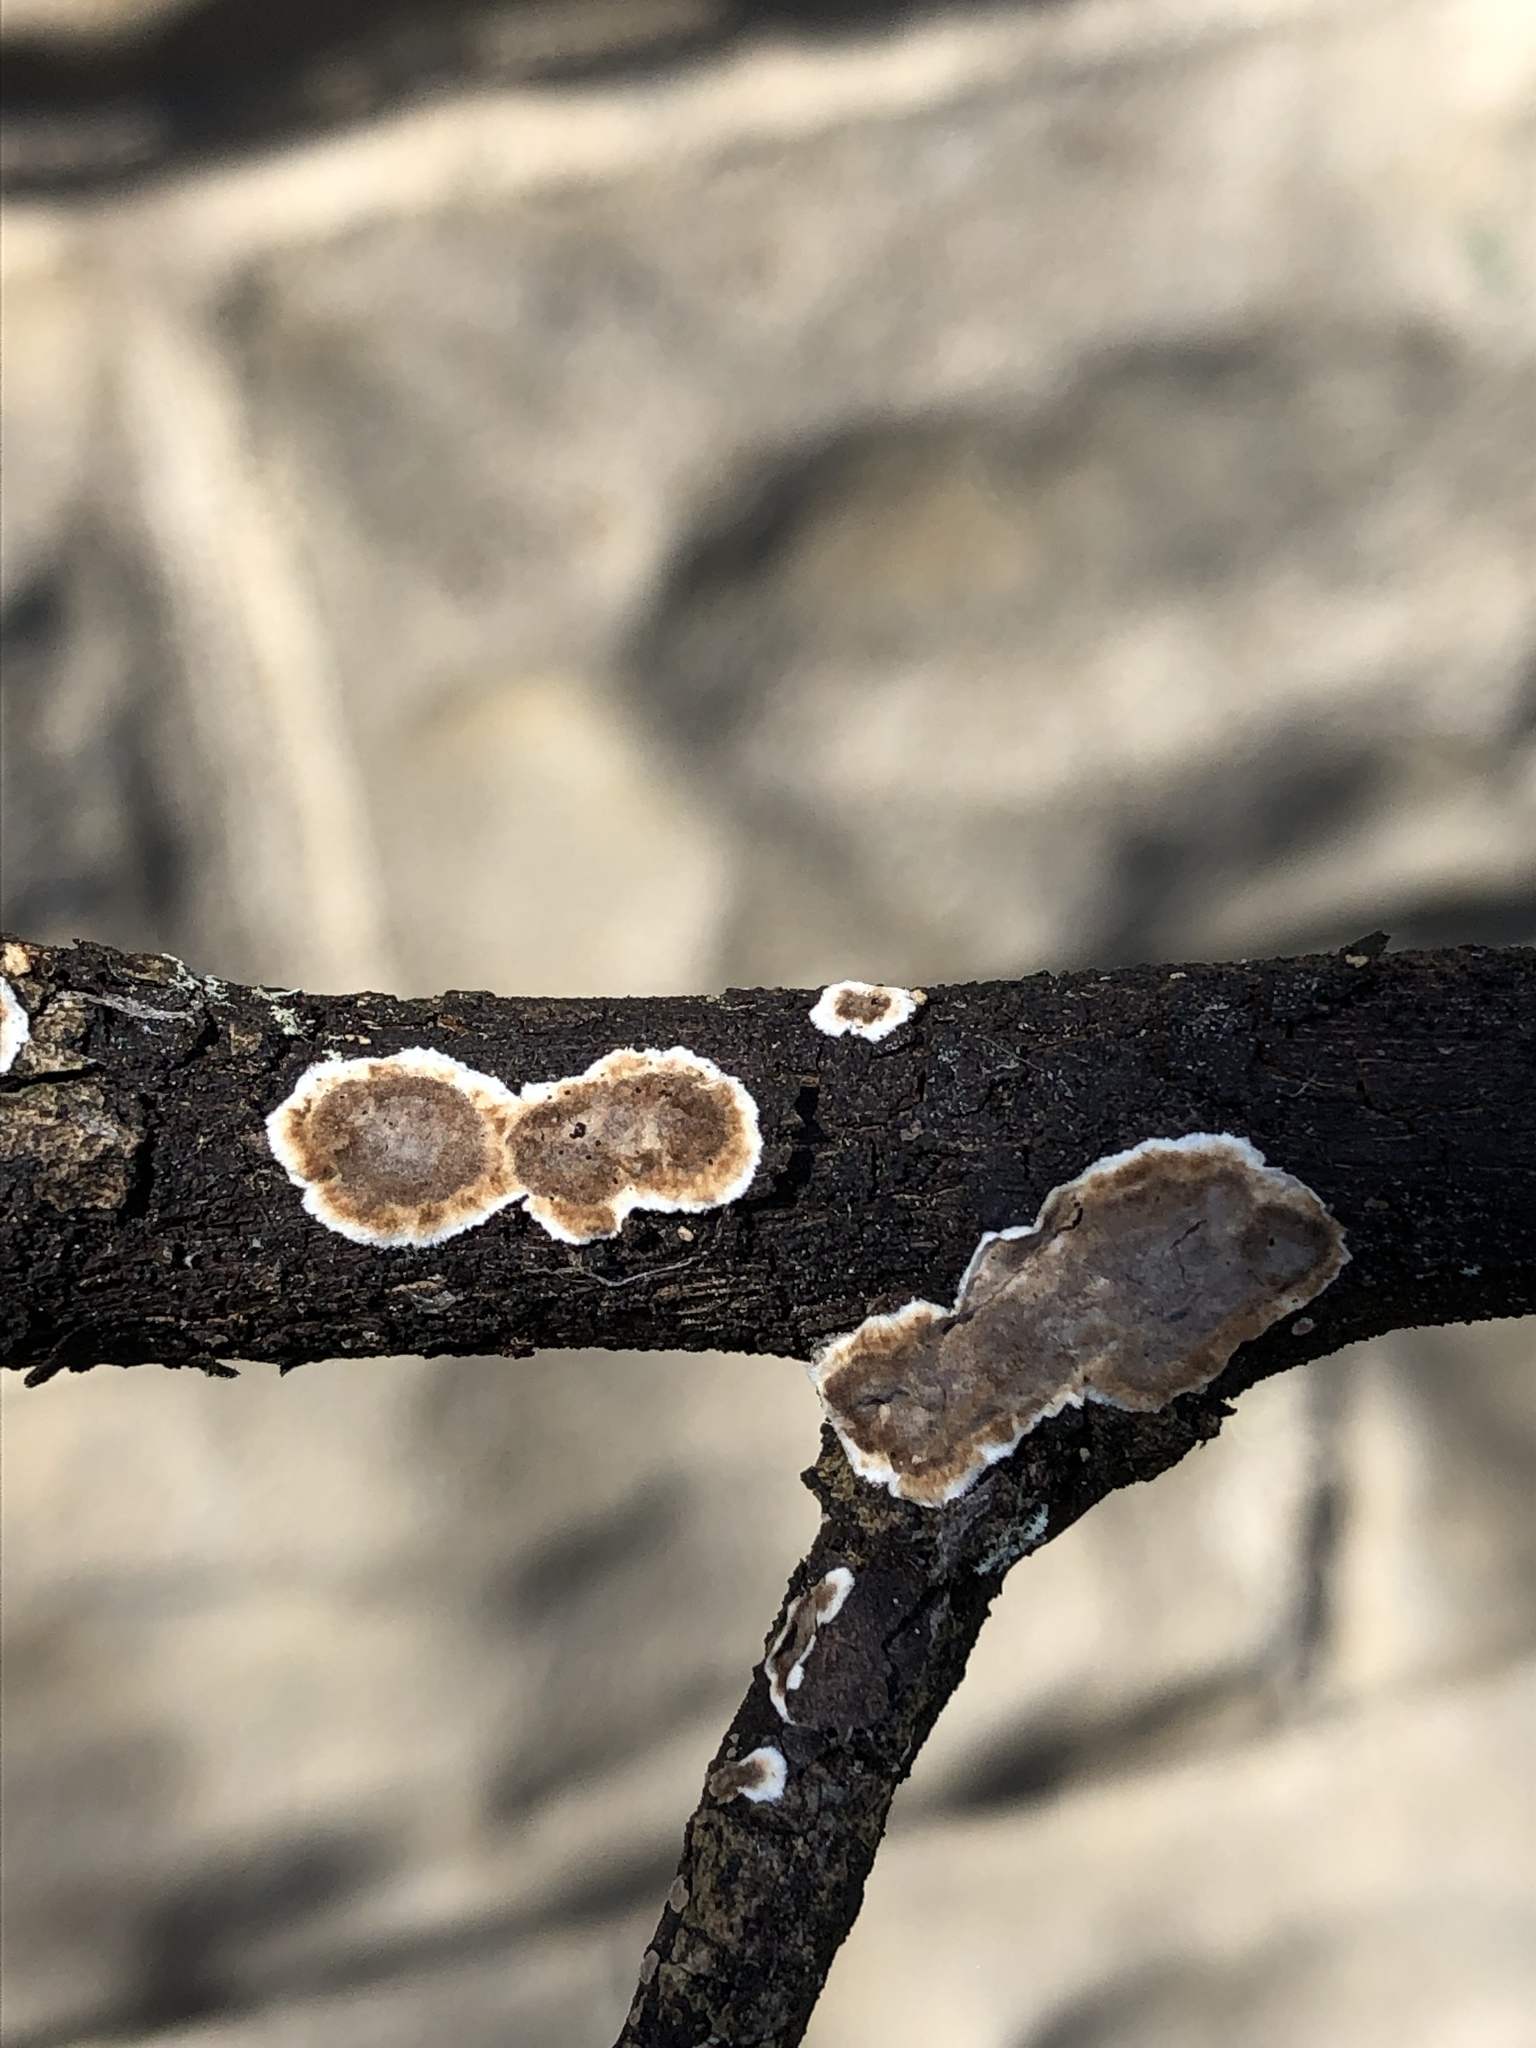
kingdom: Fungi
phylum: Basidiomycota
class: Agaricomycetes
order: Russulales
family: Peniophoraceae
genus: Peniophora
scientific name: Peniophora albobadia
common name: Giraffe spots
